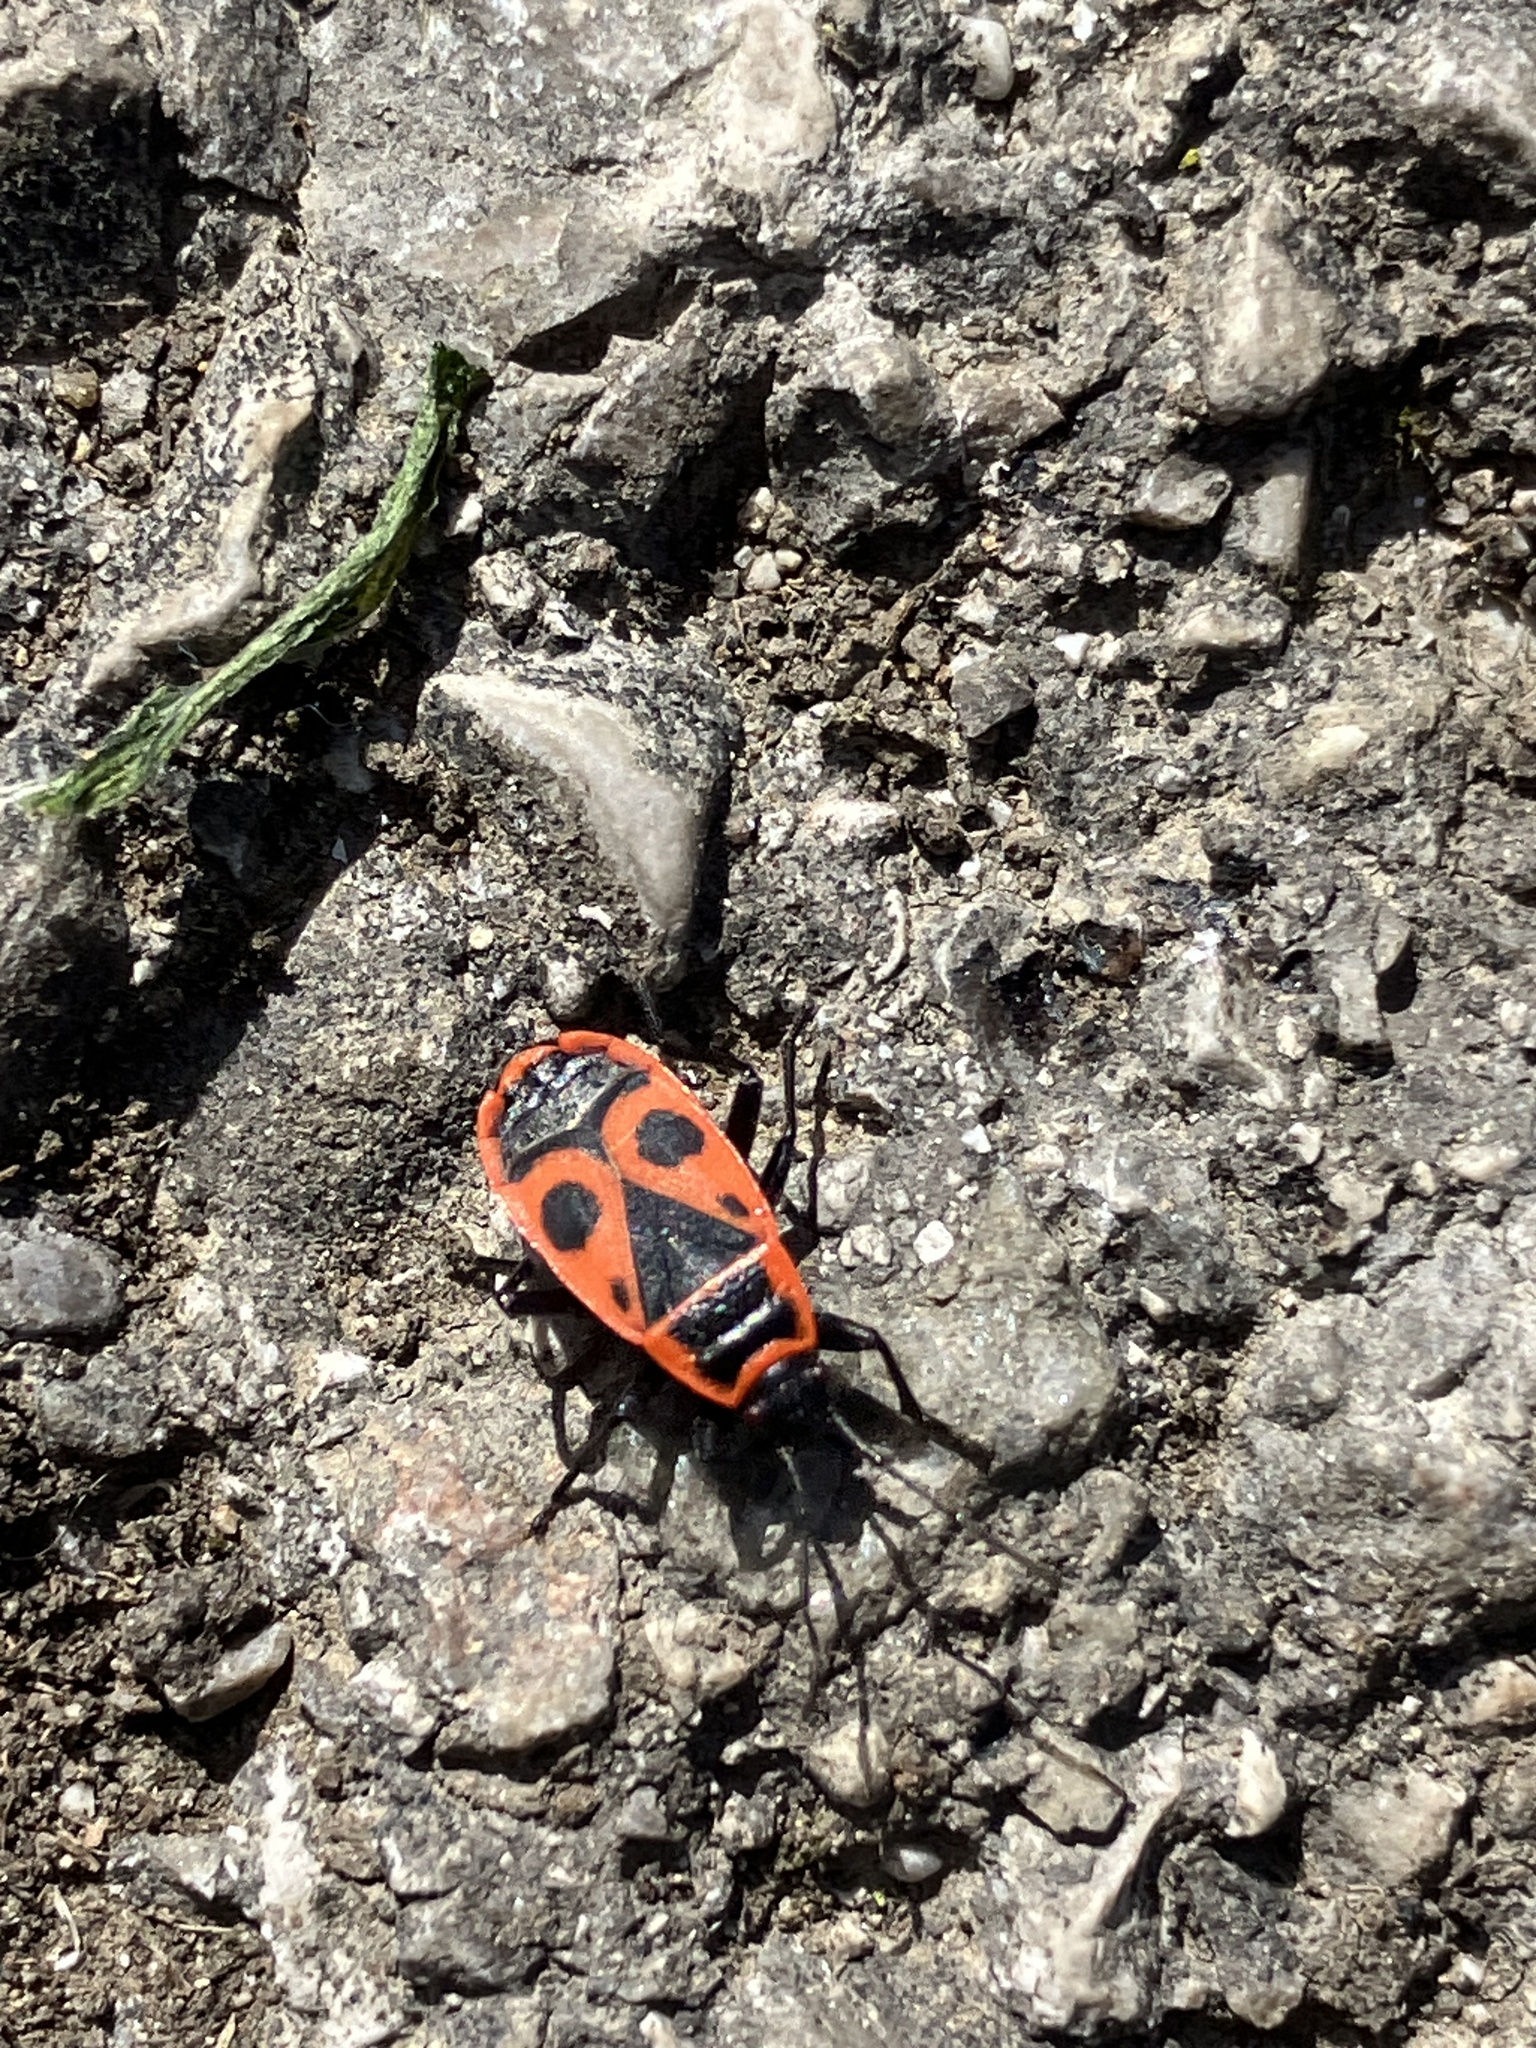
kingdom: Animalia
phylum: Arthropoda
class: Insecta
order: Hemiptera
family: Pyrrhocoridae
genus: Pyrrhocoris
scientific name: Pyrrhocoris apterus
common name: Firebug
